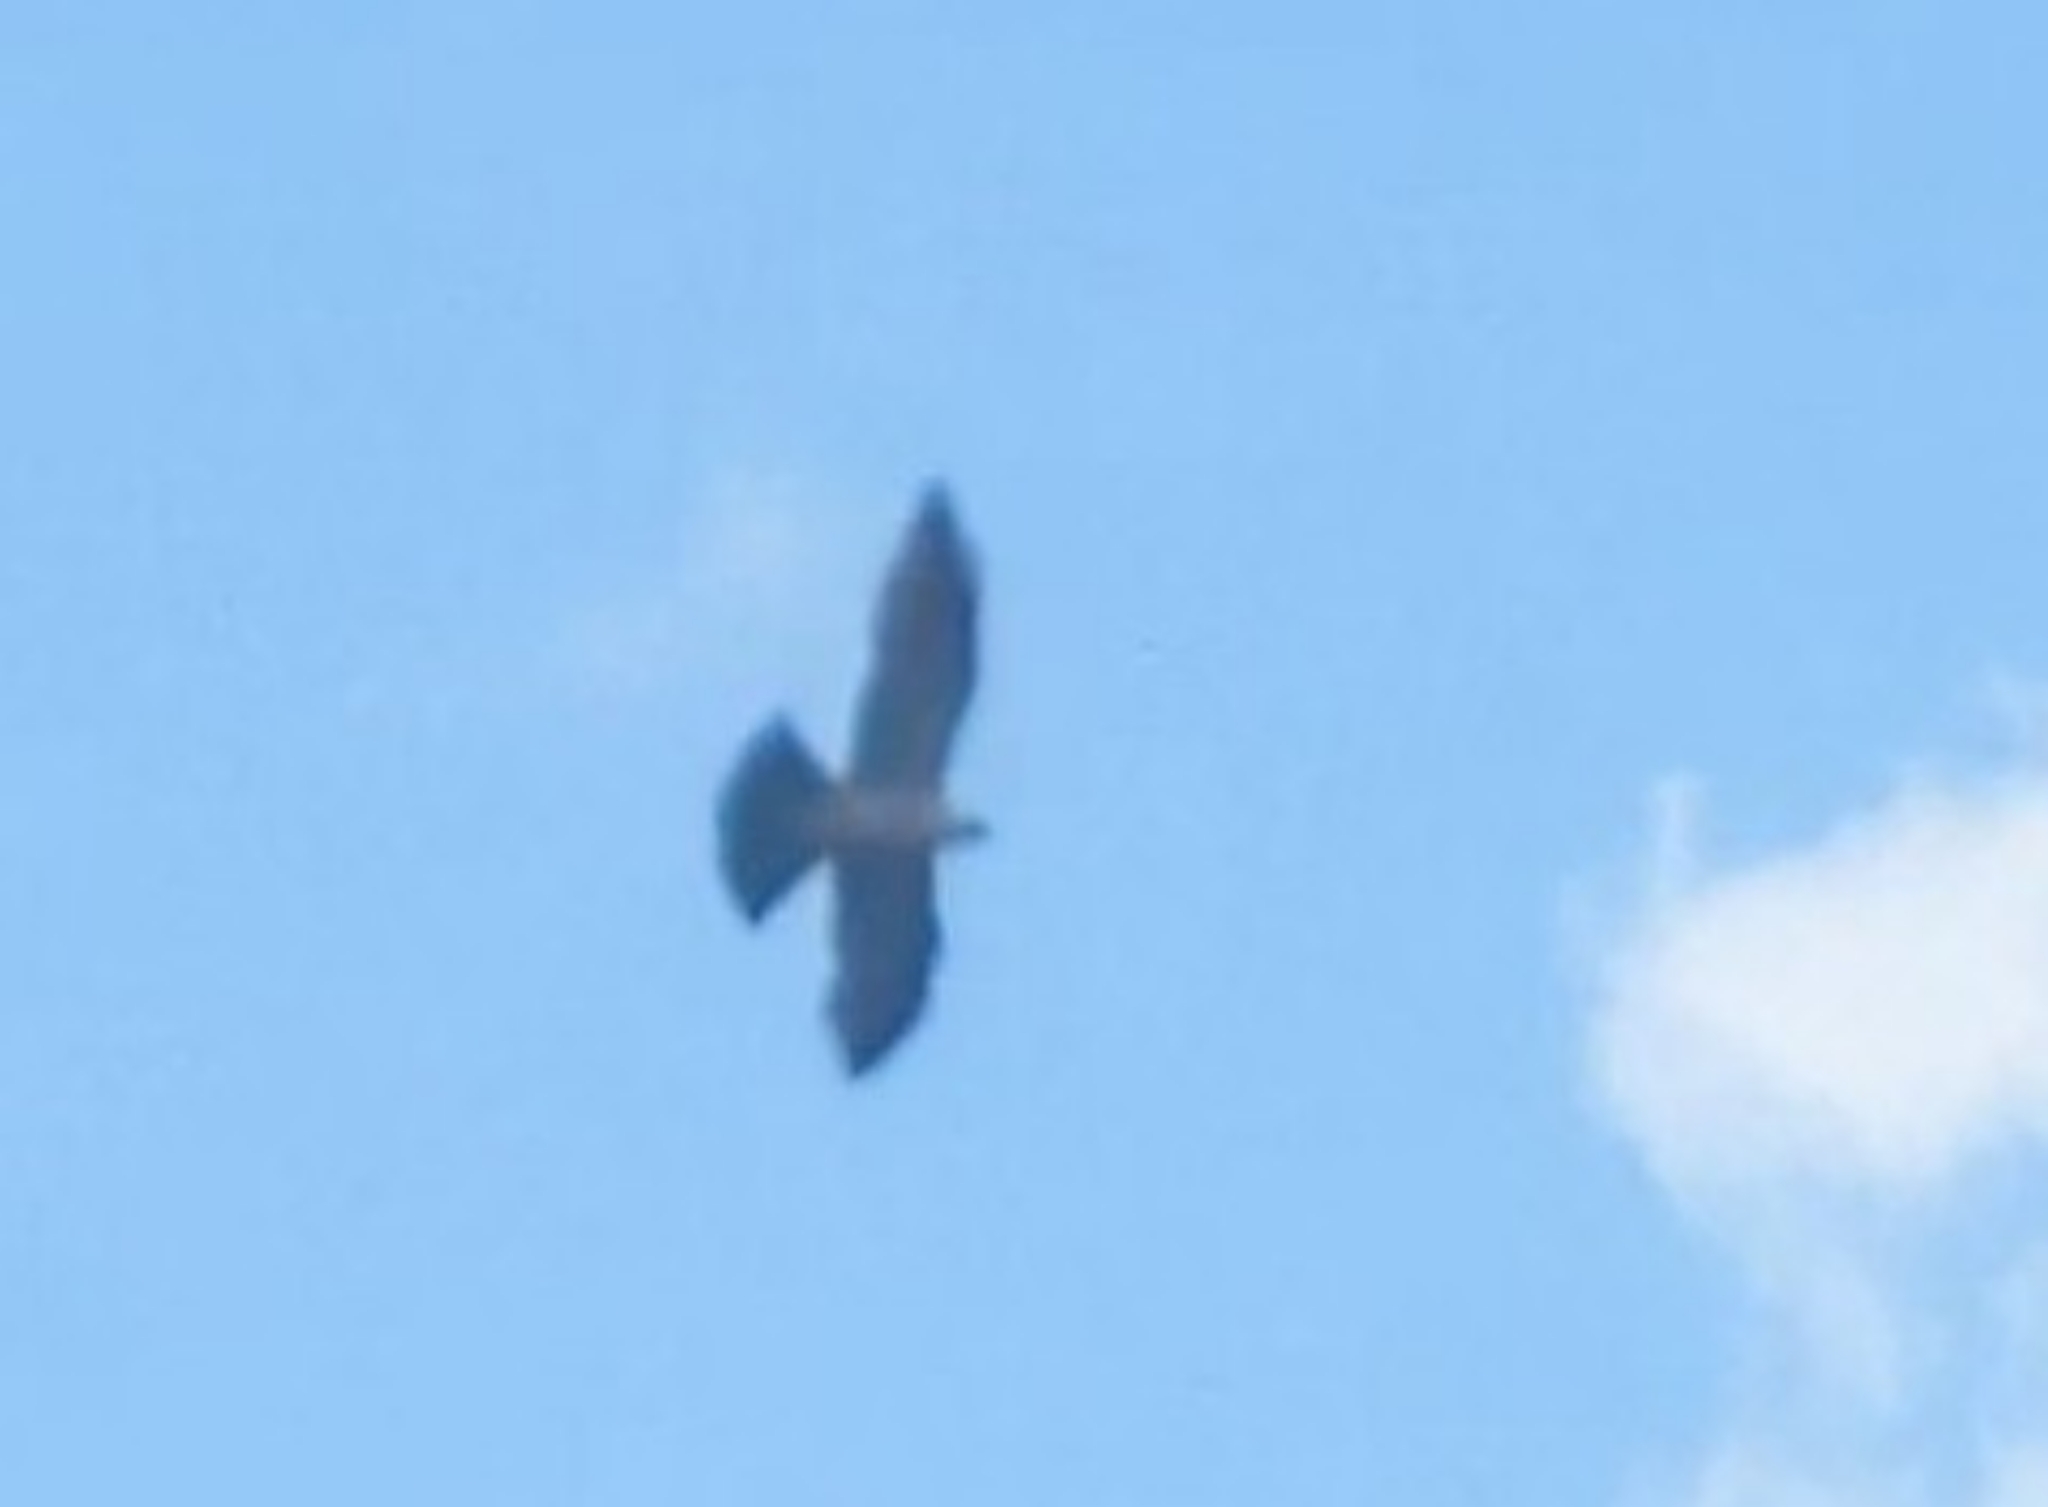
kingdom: Animalia
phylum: Chordata
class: Aves
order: Accipitriformes
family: Accipitridae
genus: Ictinia
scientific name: Ictinia mississippiensis
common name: Mississippi kite
